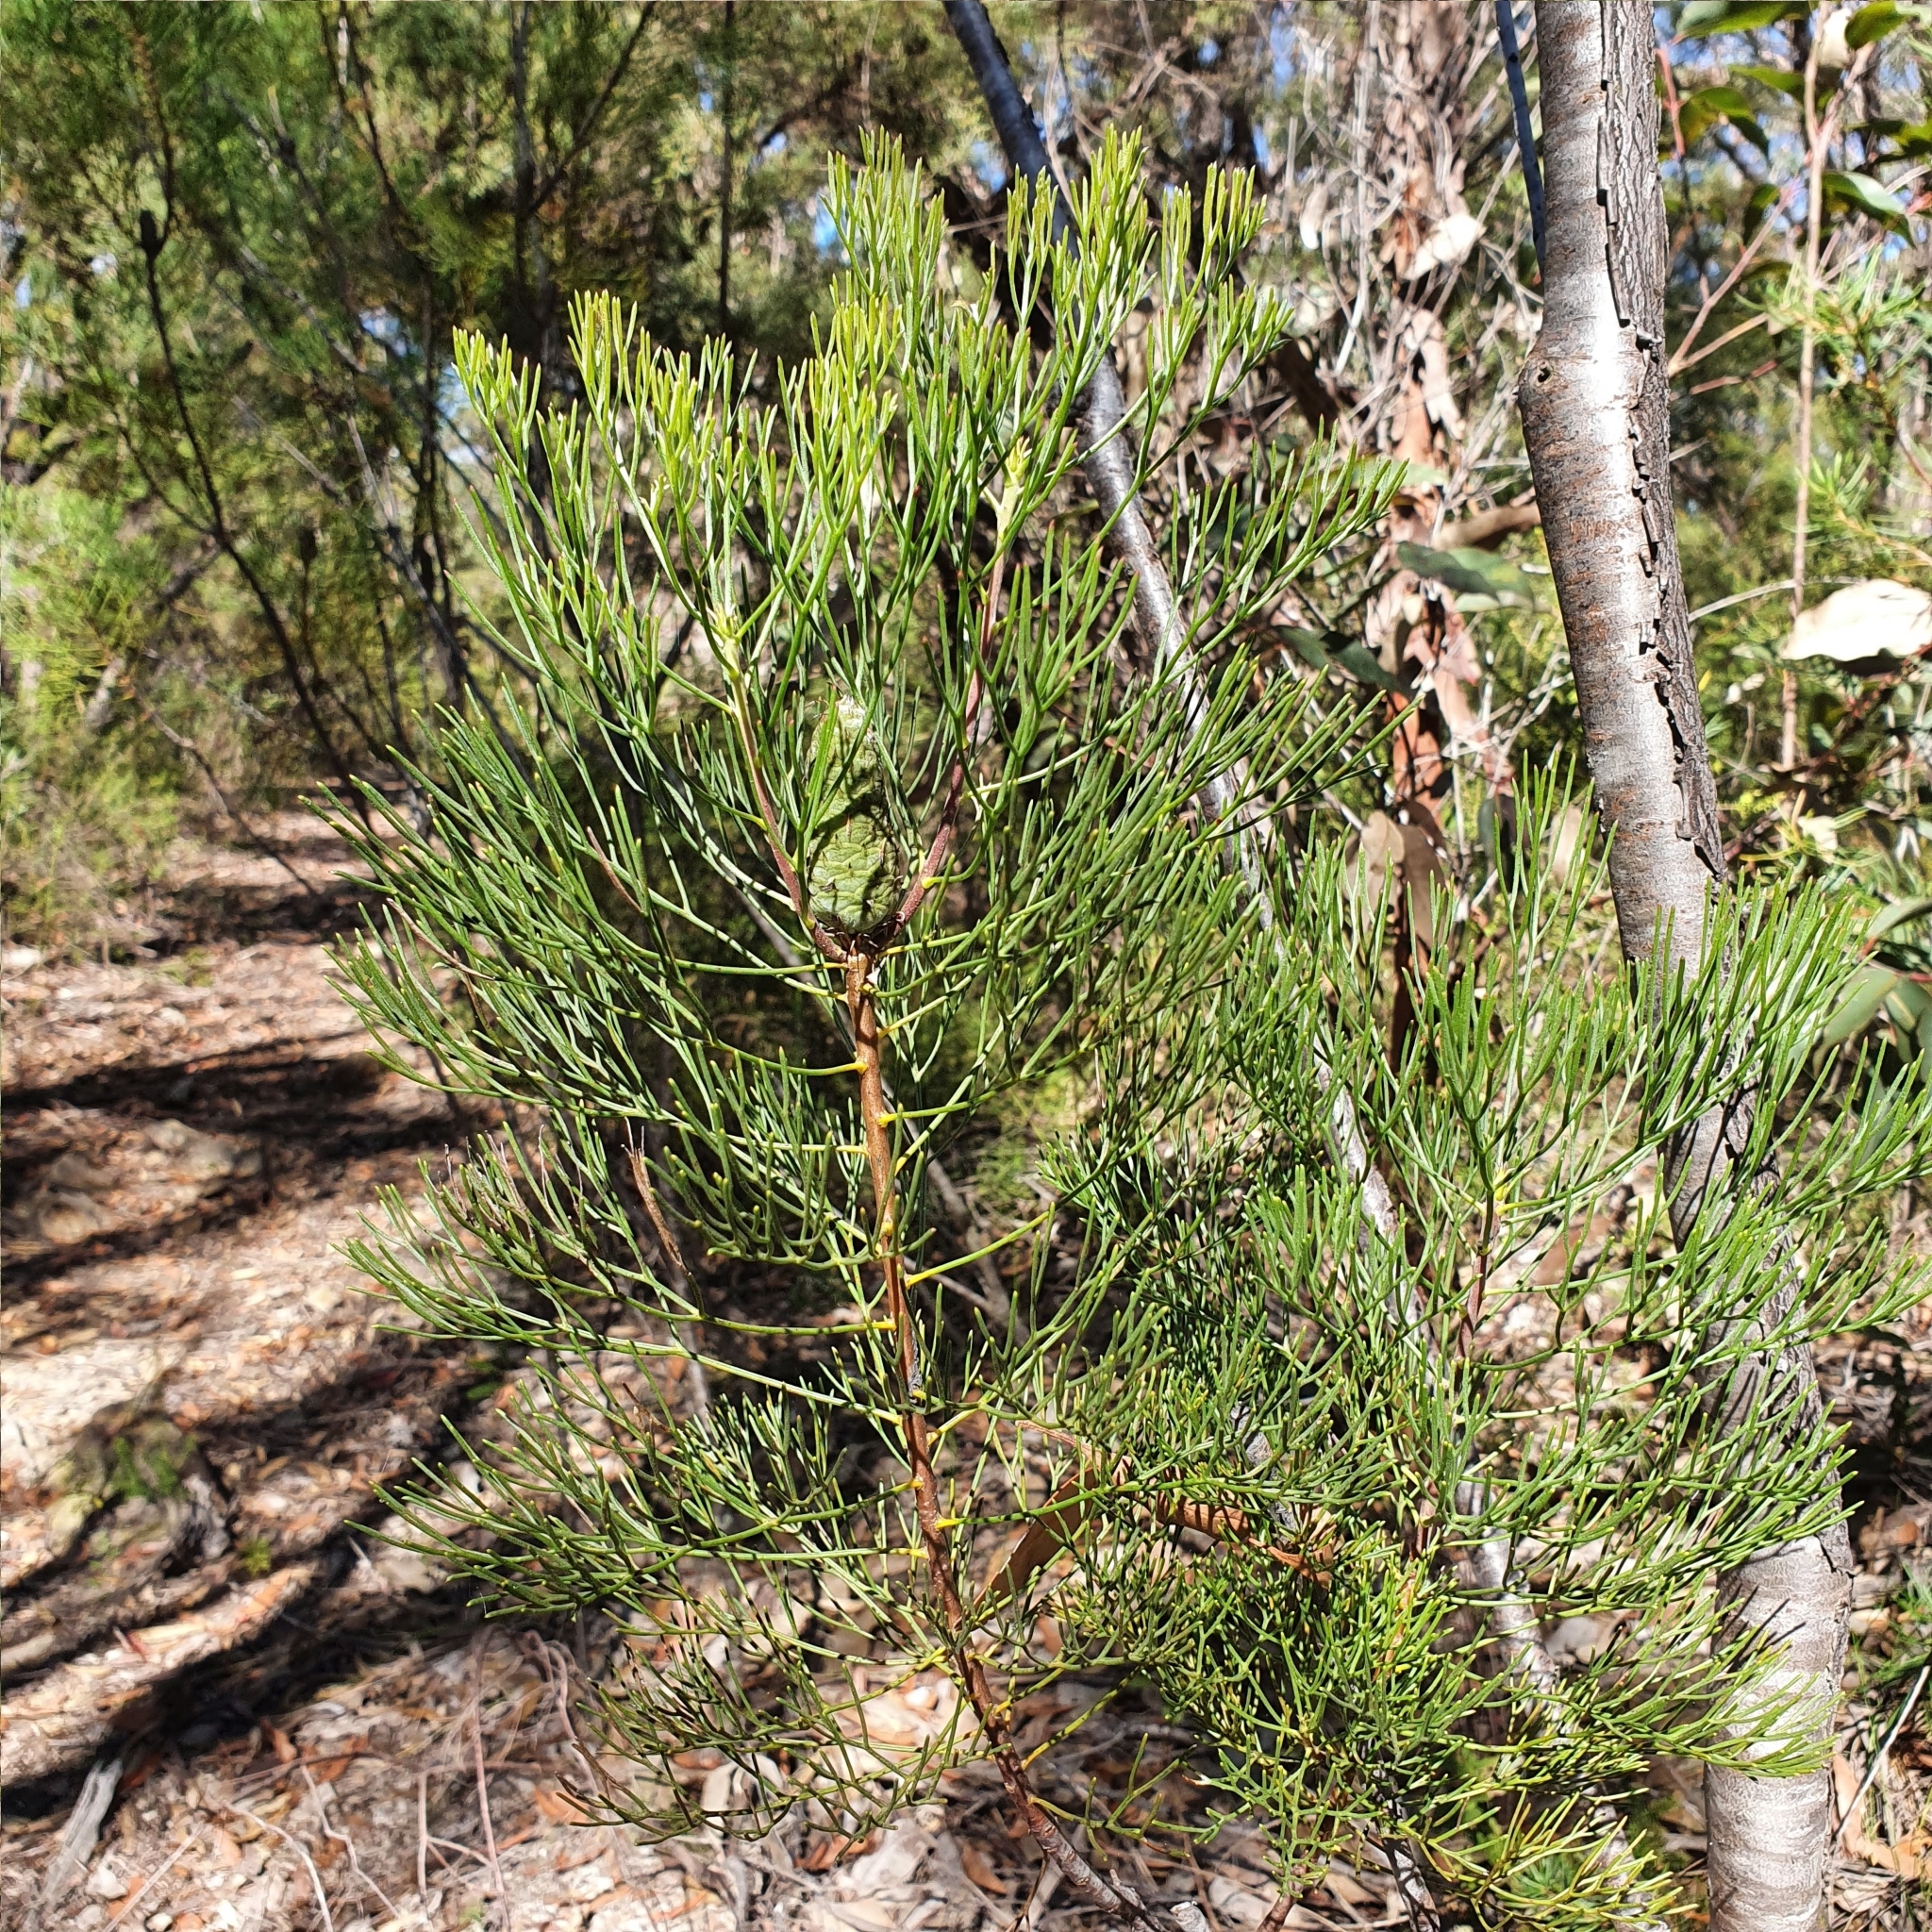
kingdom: Plantae
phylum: Tracheophyta
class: Magnoliopsida
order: Proteales
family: Proteaceae
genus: Petrophile
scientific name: Petrophile pulchella
